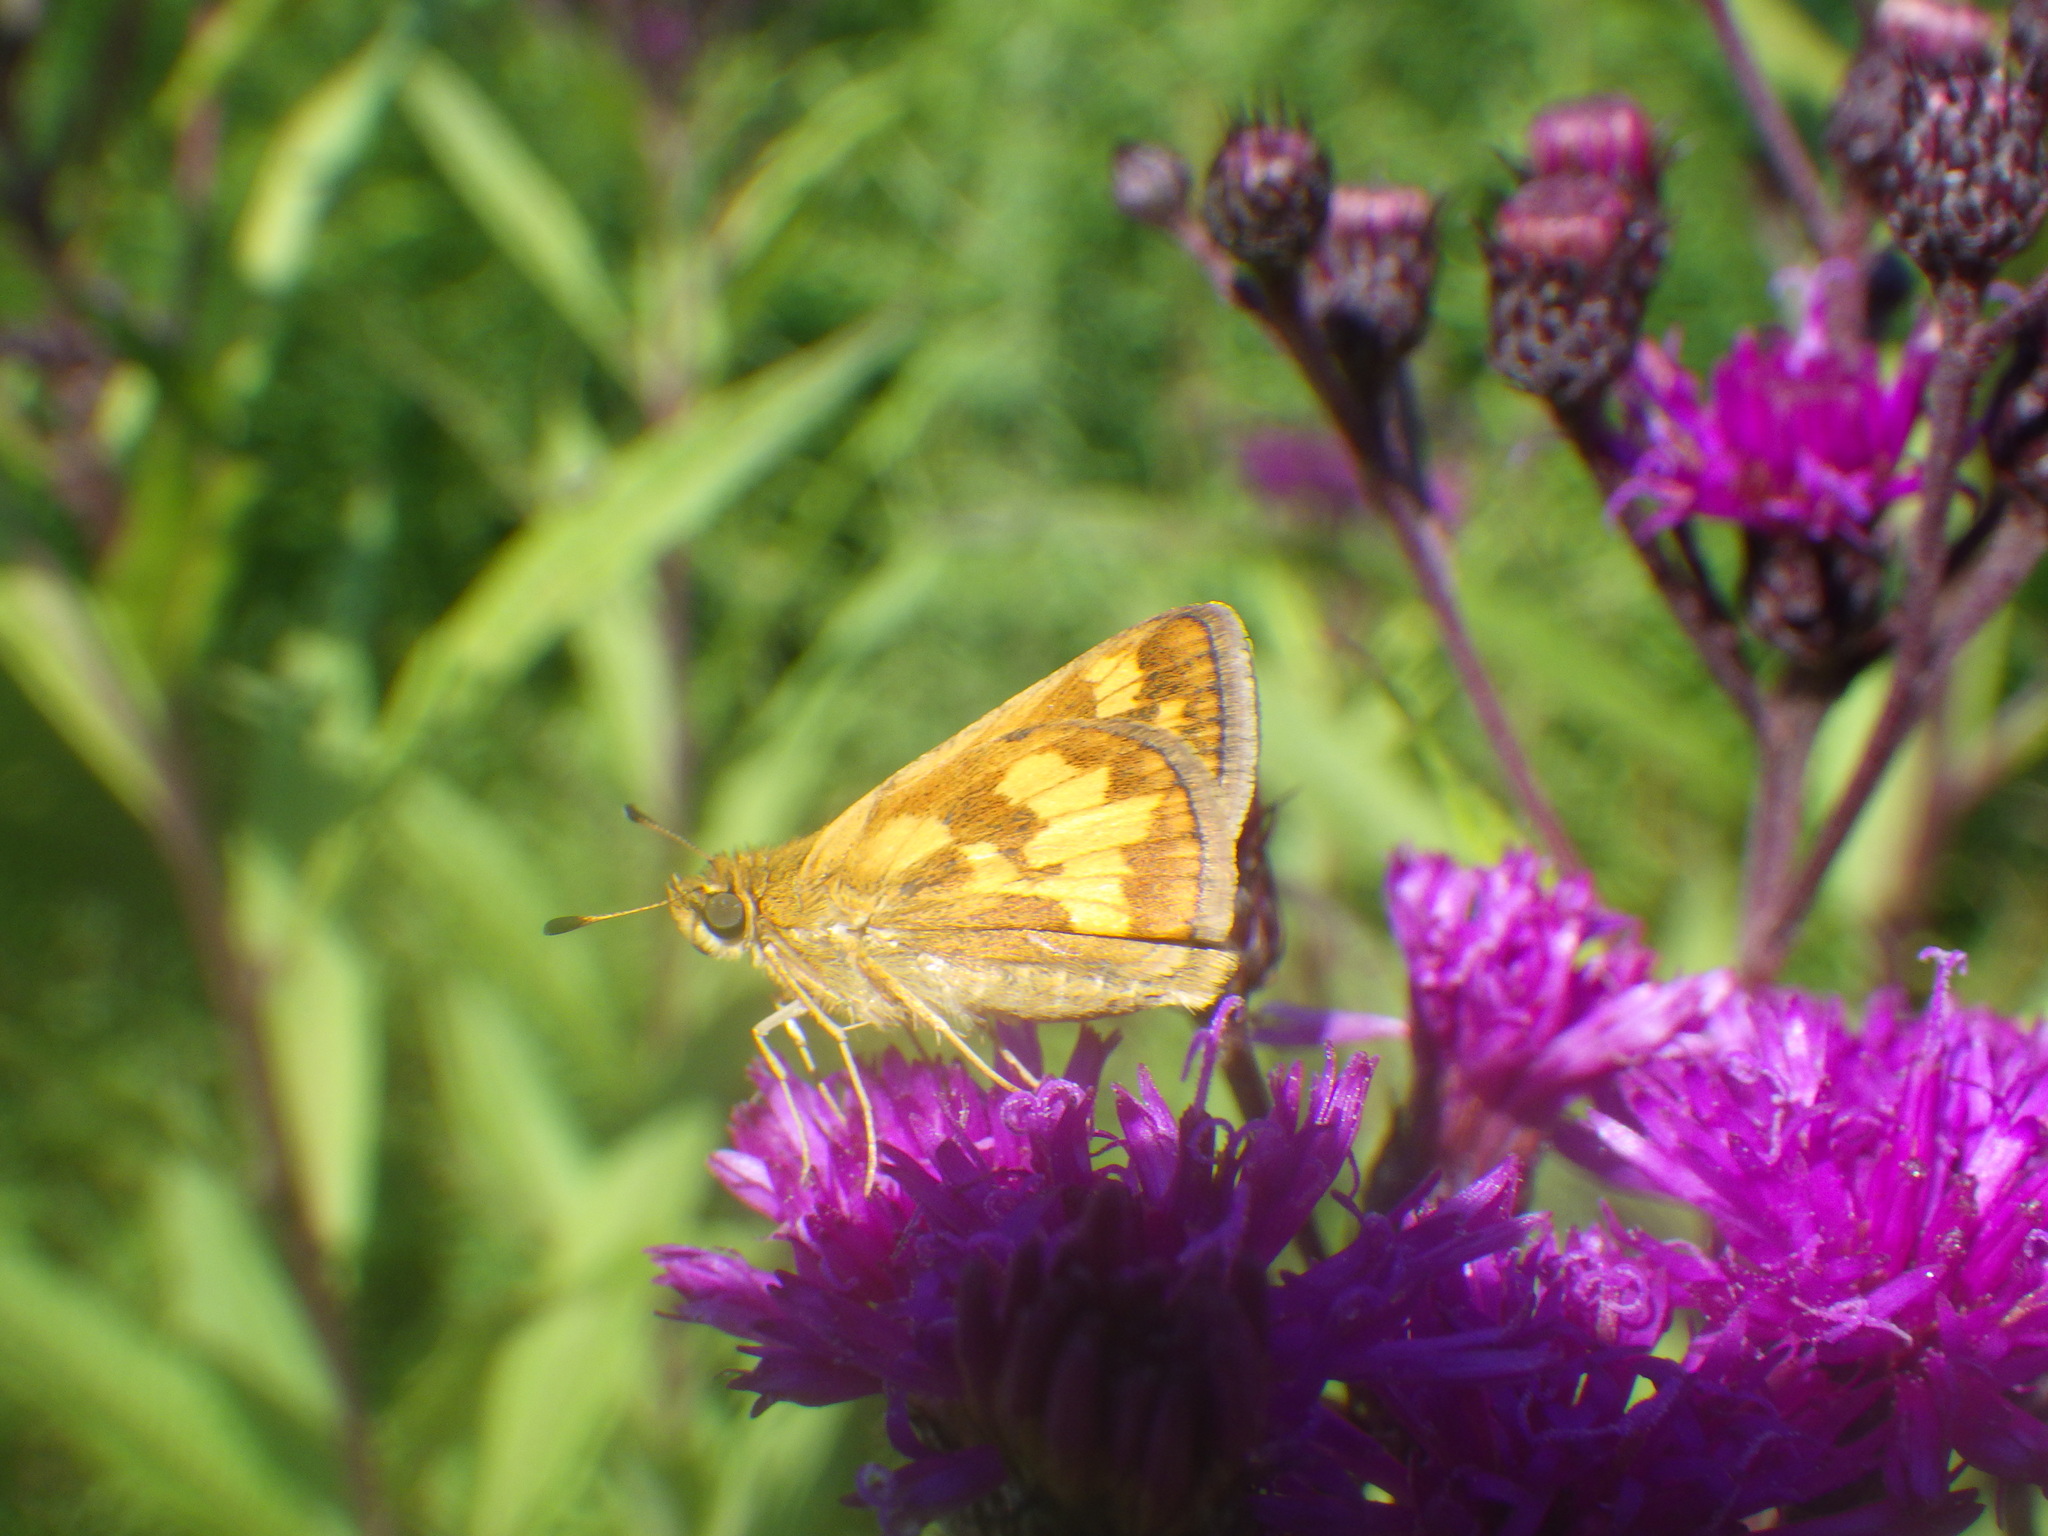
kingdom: Animalia
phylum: Arthropoda
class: Insecta
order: Lepidoptera
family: Hesperiidae
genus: Polites
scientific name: Polites coras
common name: Peck's skipper
